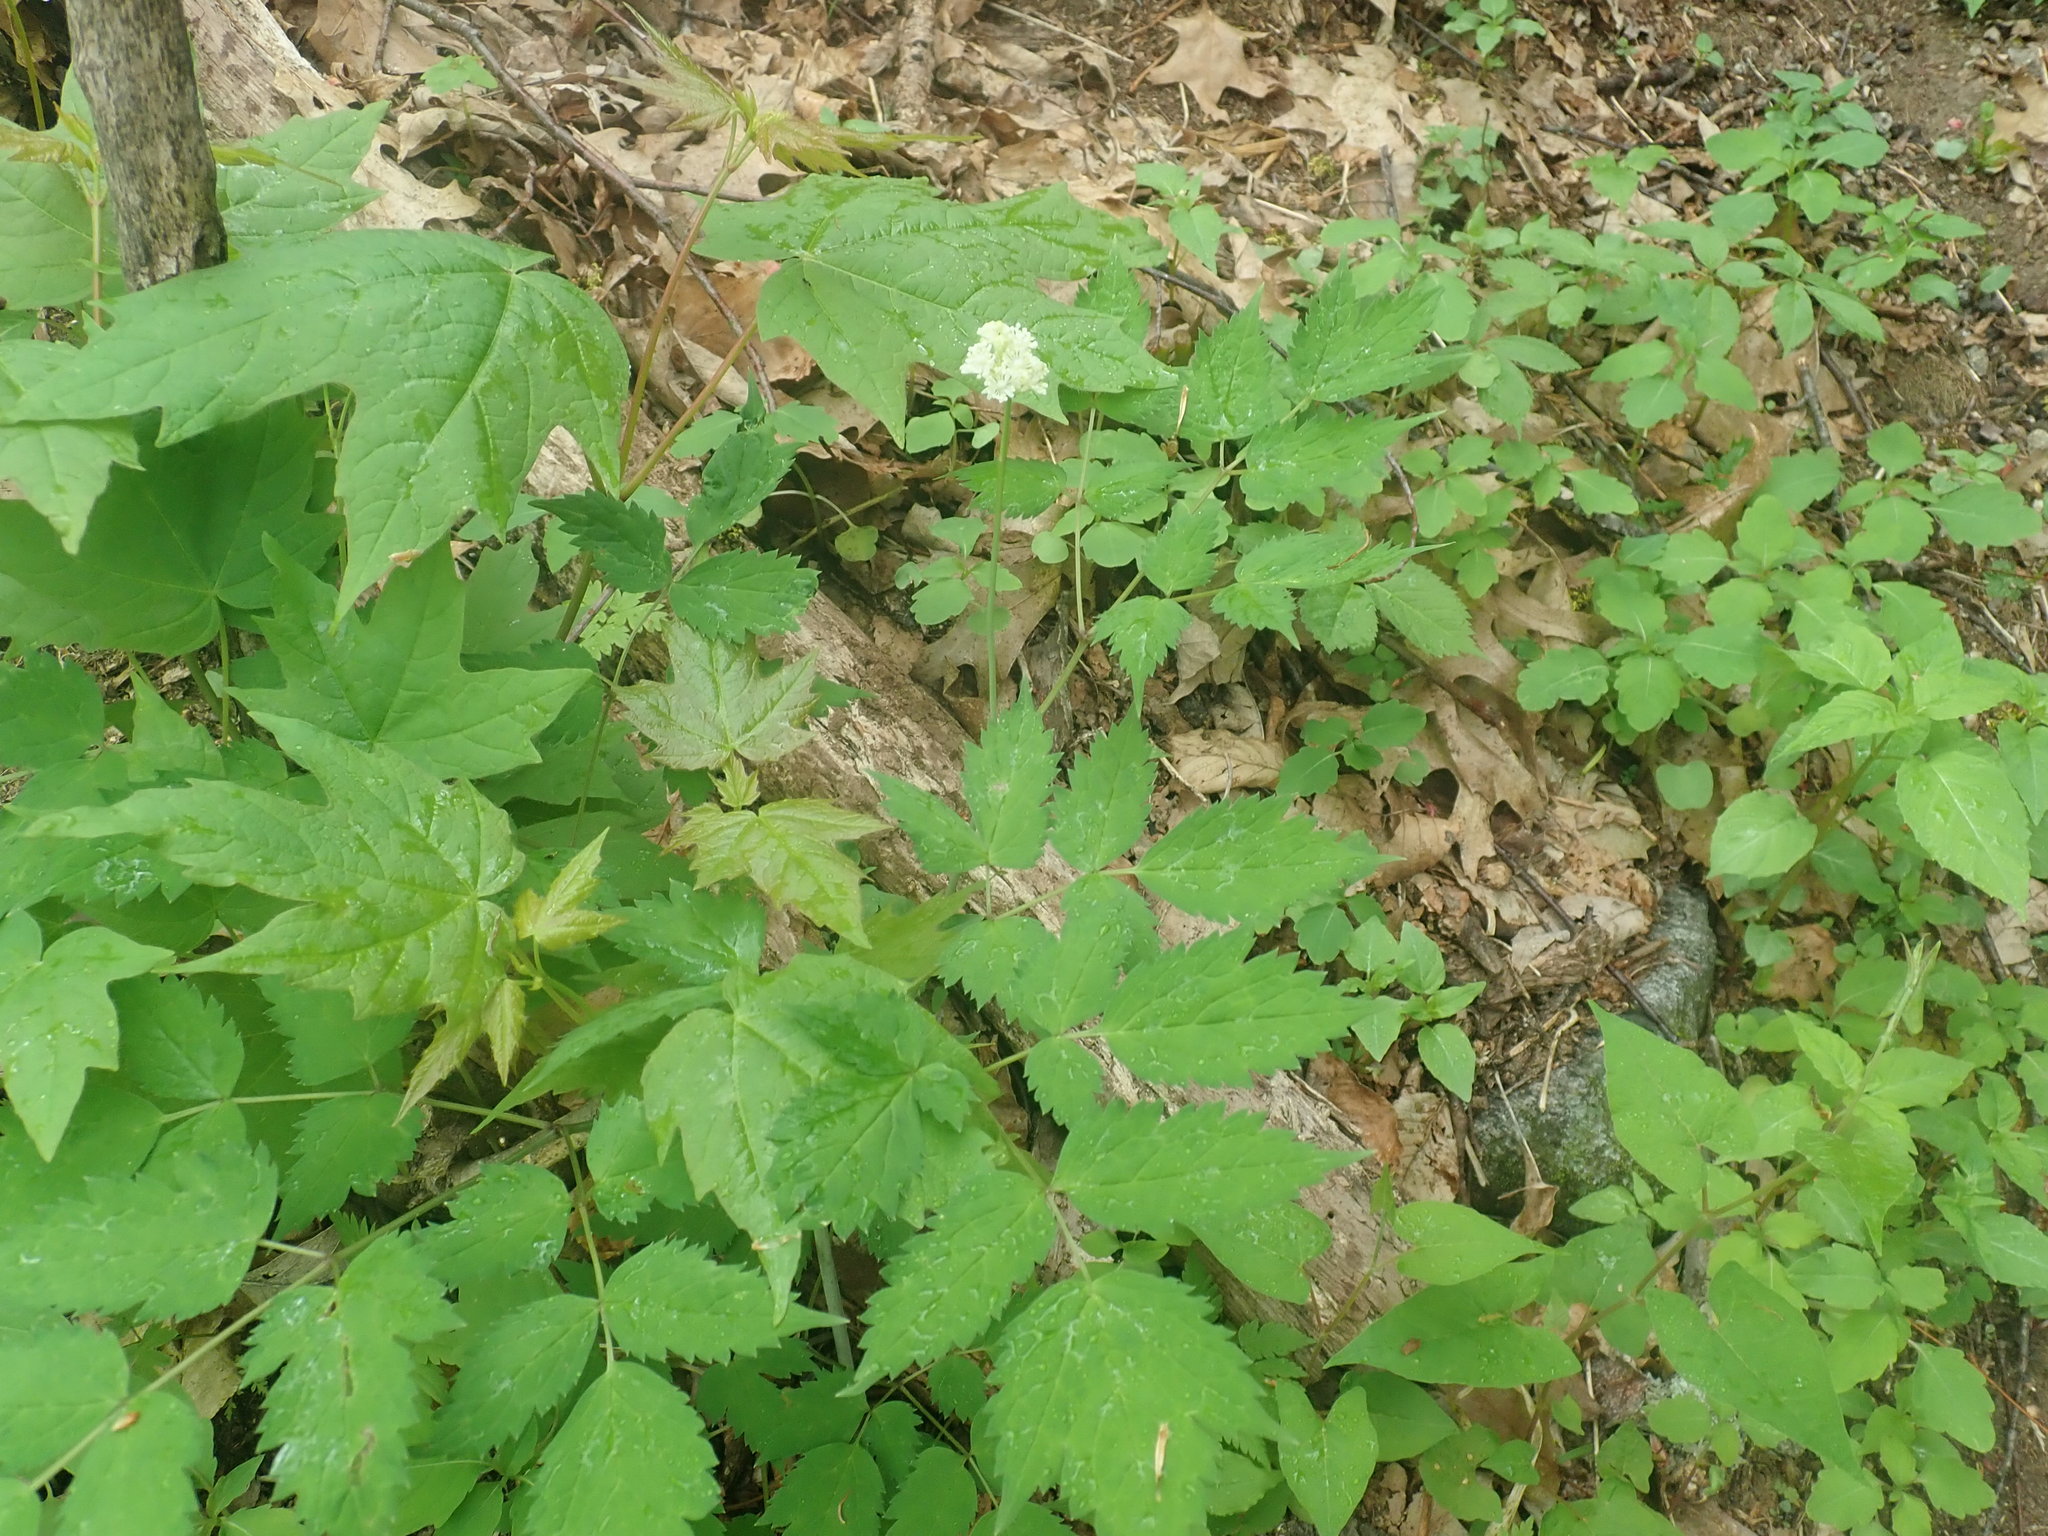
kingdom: Plantae
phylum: Tracheophyta
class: Magnoliopsida
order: Ranunculales
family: Ranunculaceae
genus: Actaea
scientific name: Actaea
